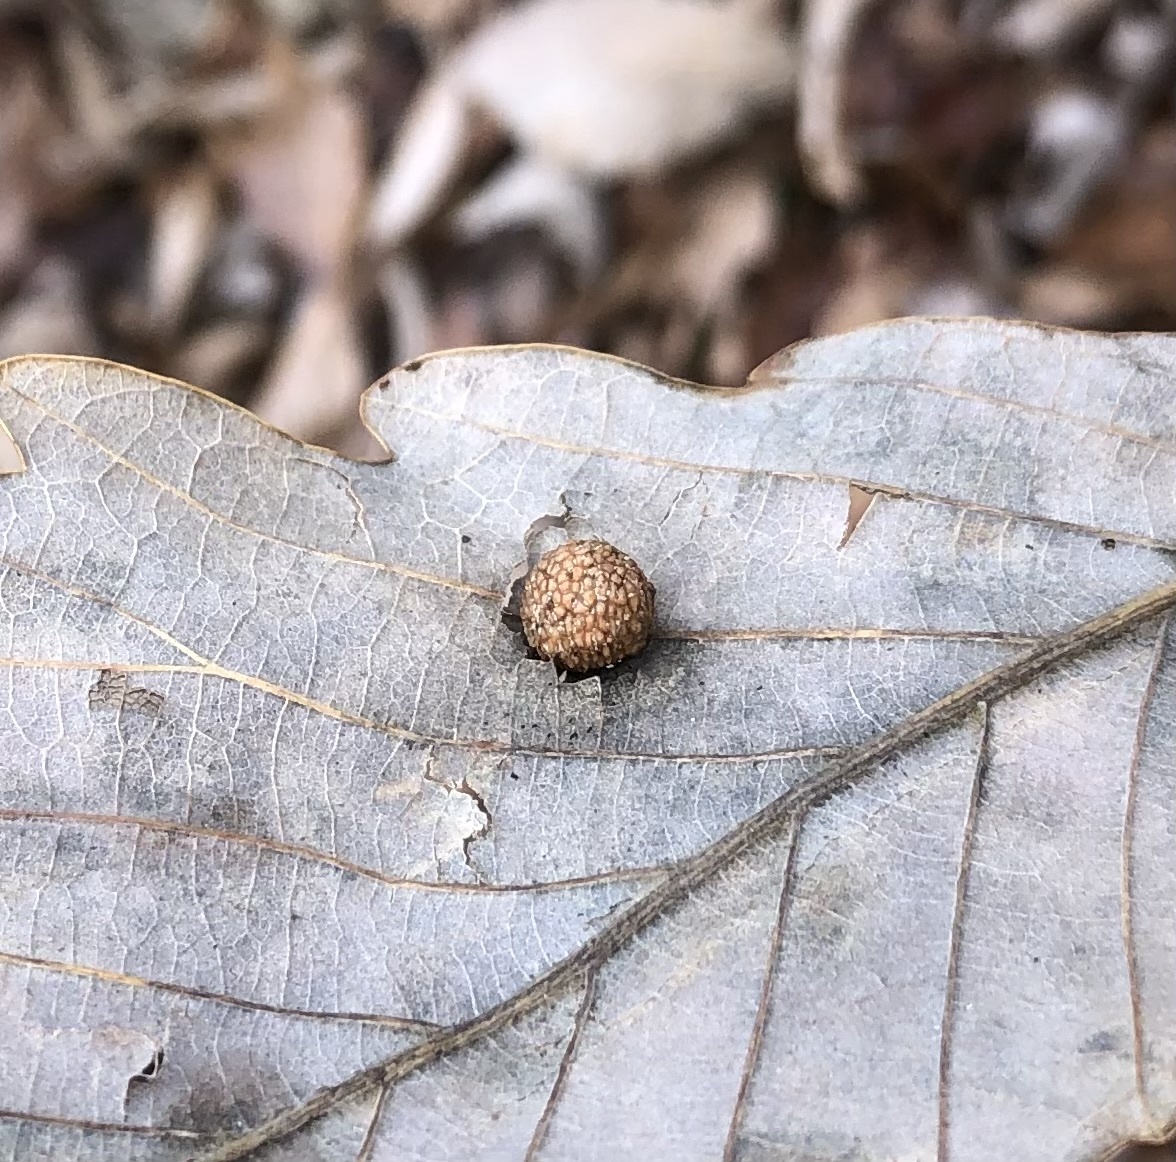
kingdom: Animalia
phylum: Arthropoda
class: Insecta
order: Hymenoptera
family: Cynipidae
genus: Acraspis
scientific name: Acraspis quercushirta
